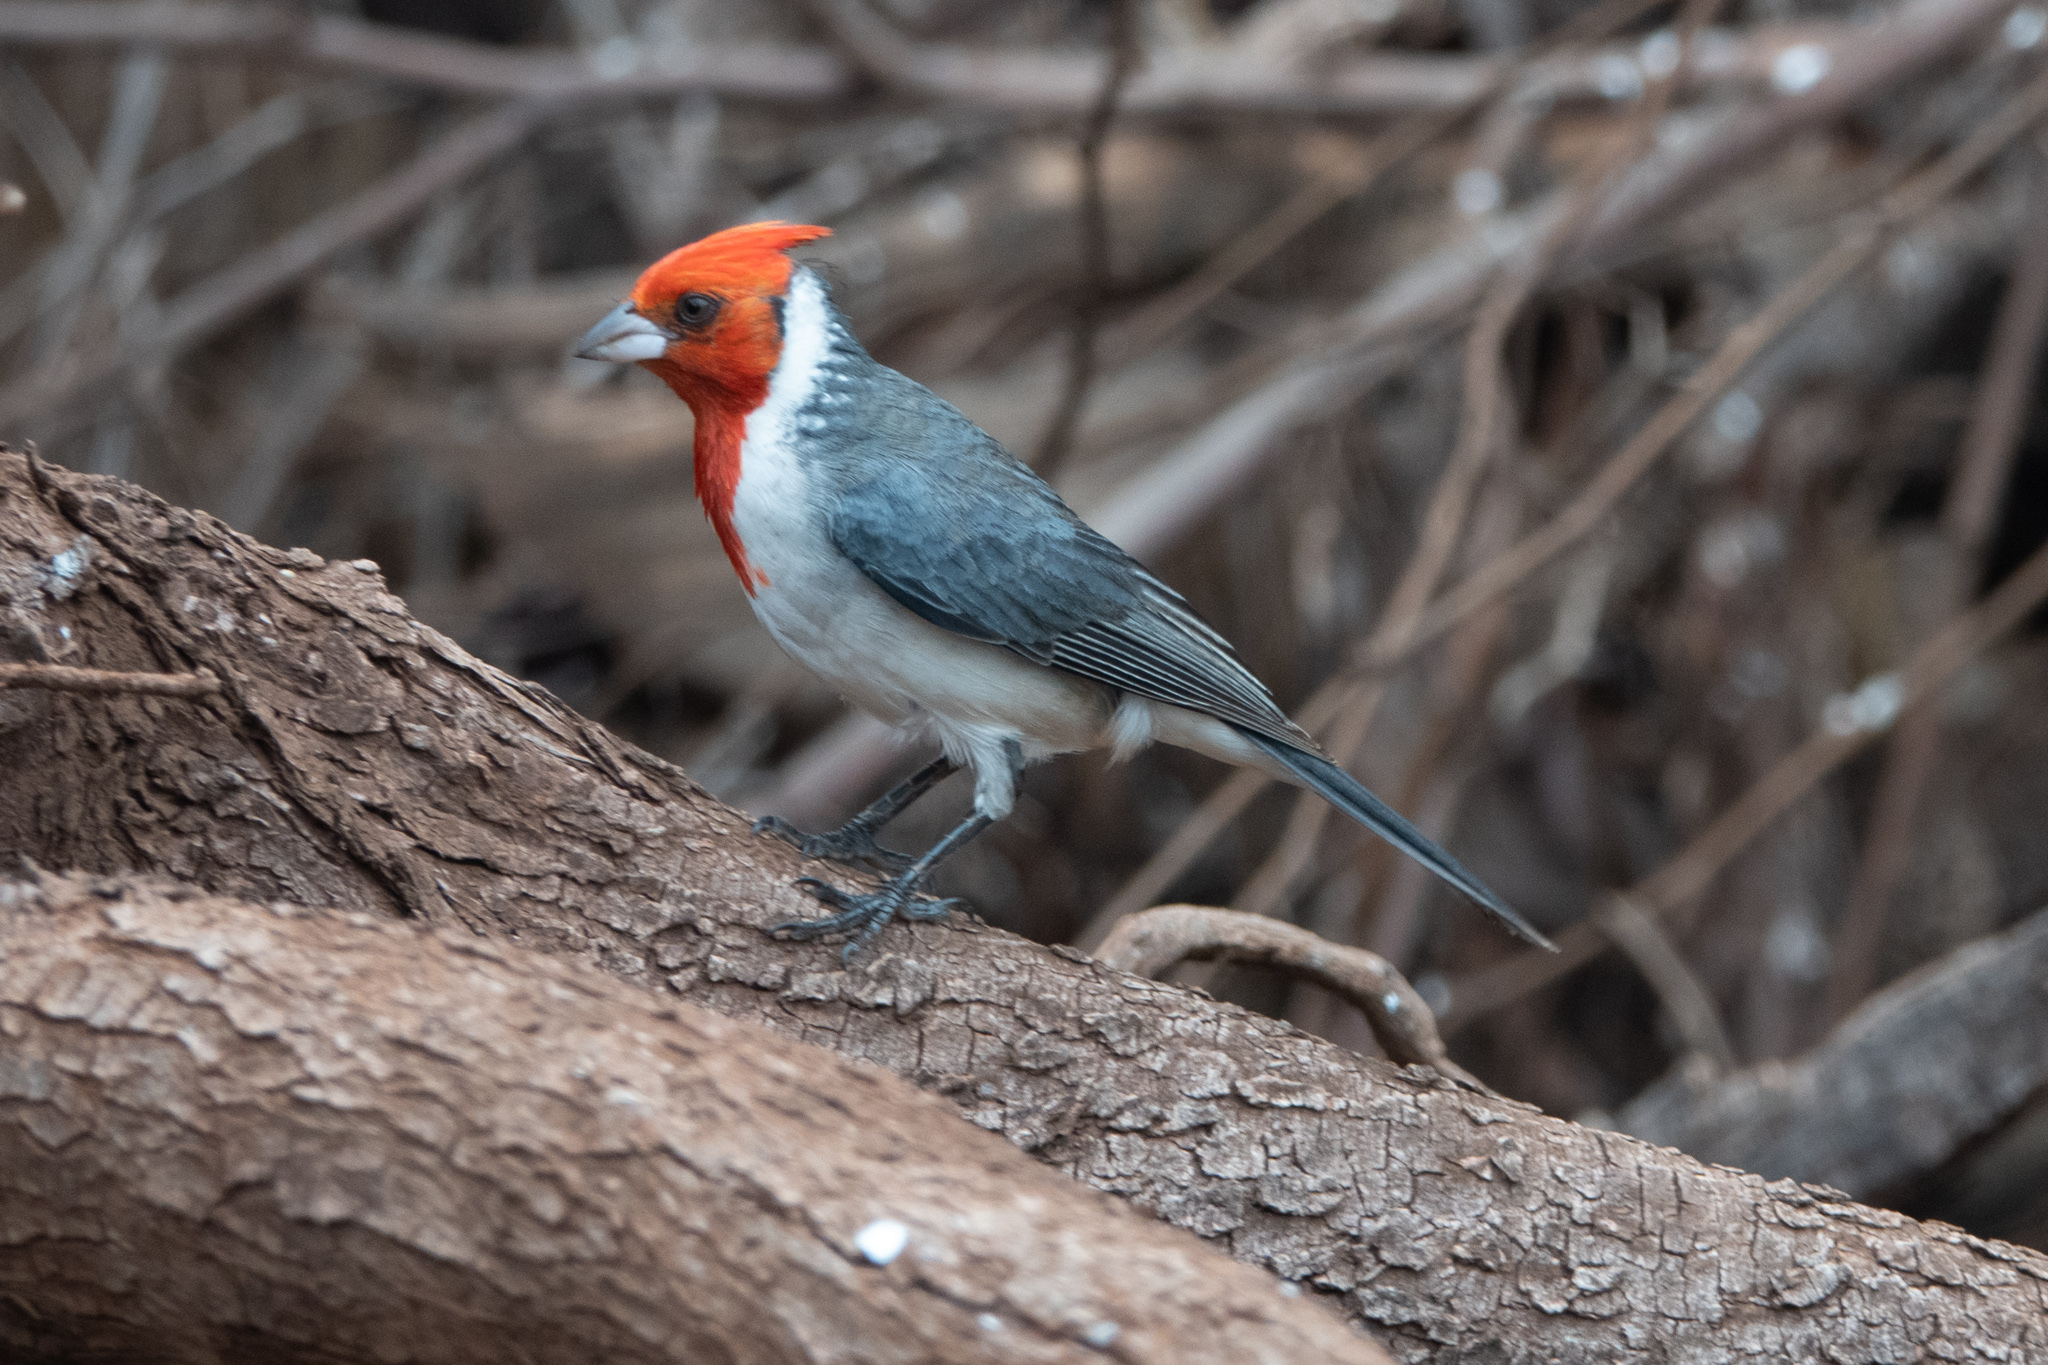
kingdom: Animalia
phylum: Chordata
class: Aves
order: Passeriformes
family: Thraupidae
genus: Paroaria
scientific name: Paroaria coronata
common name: Red-crested cardinal
